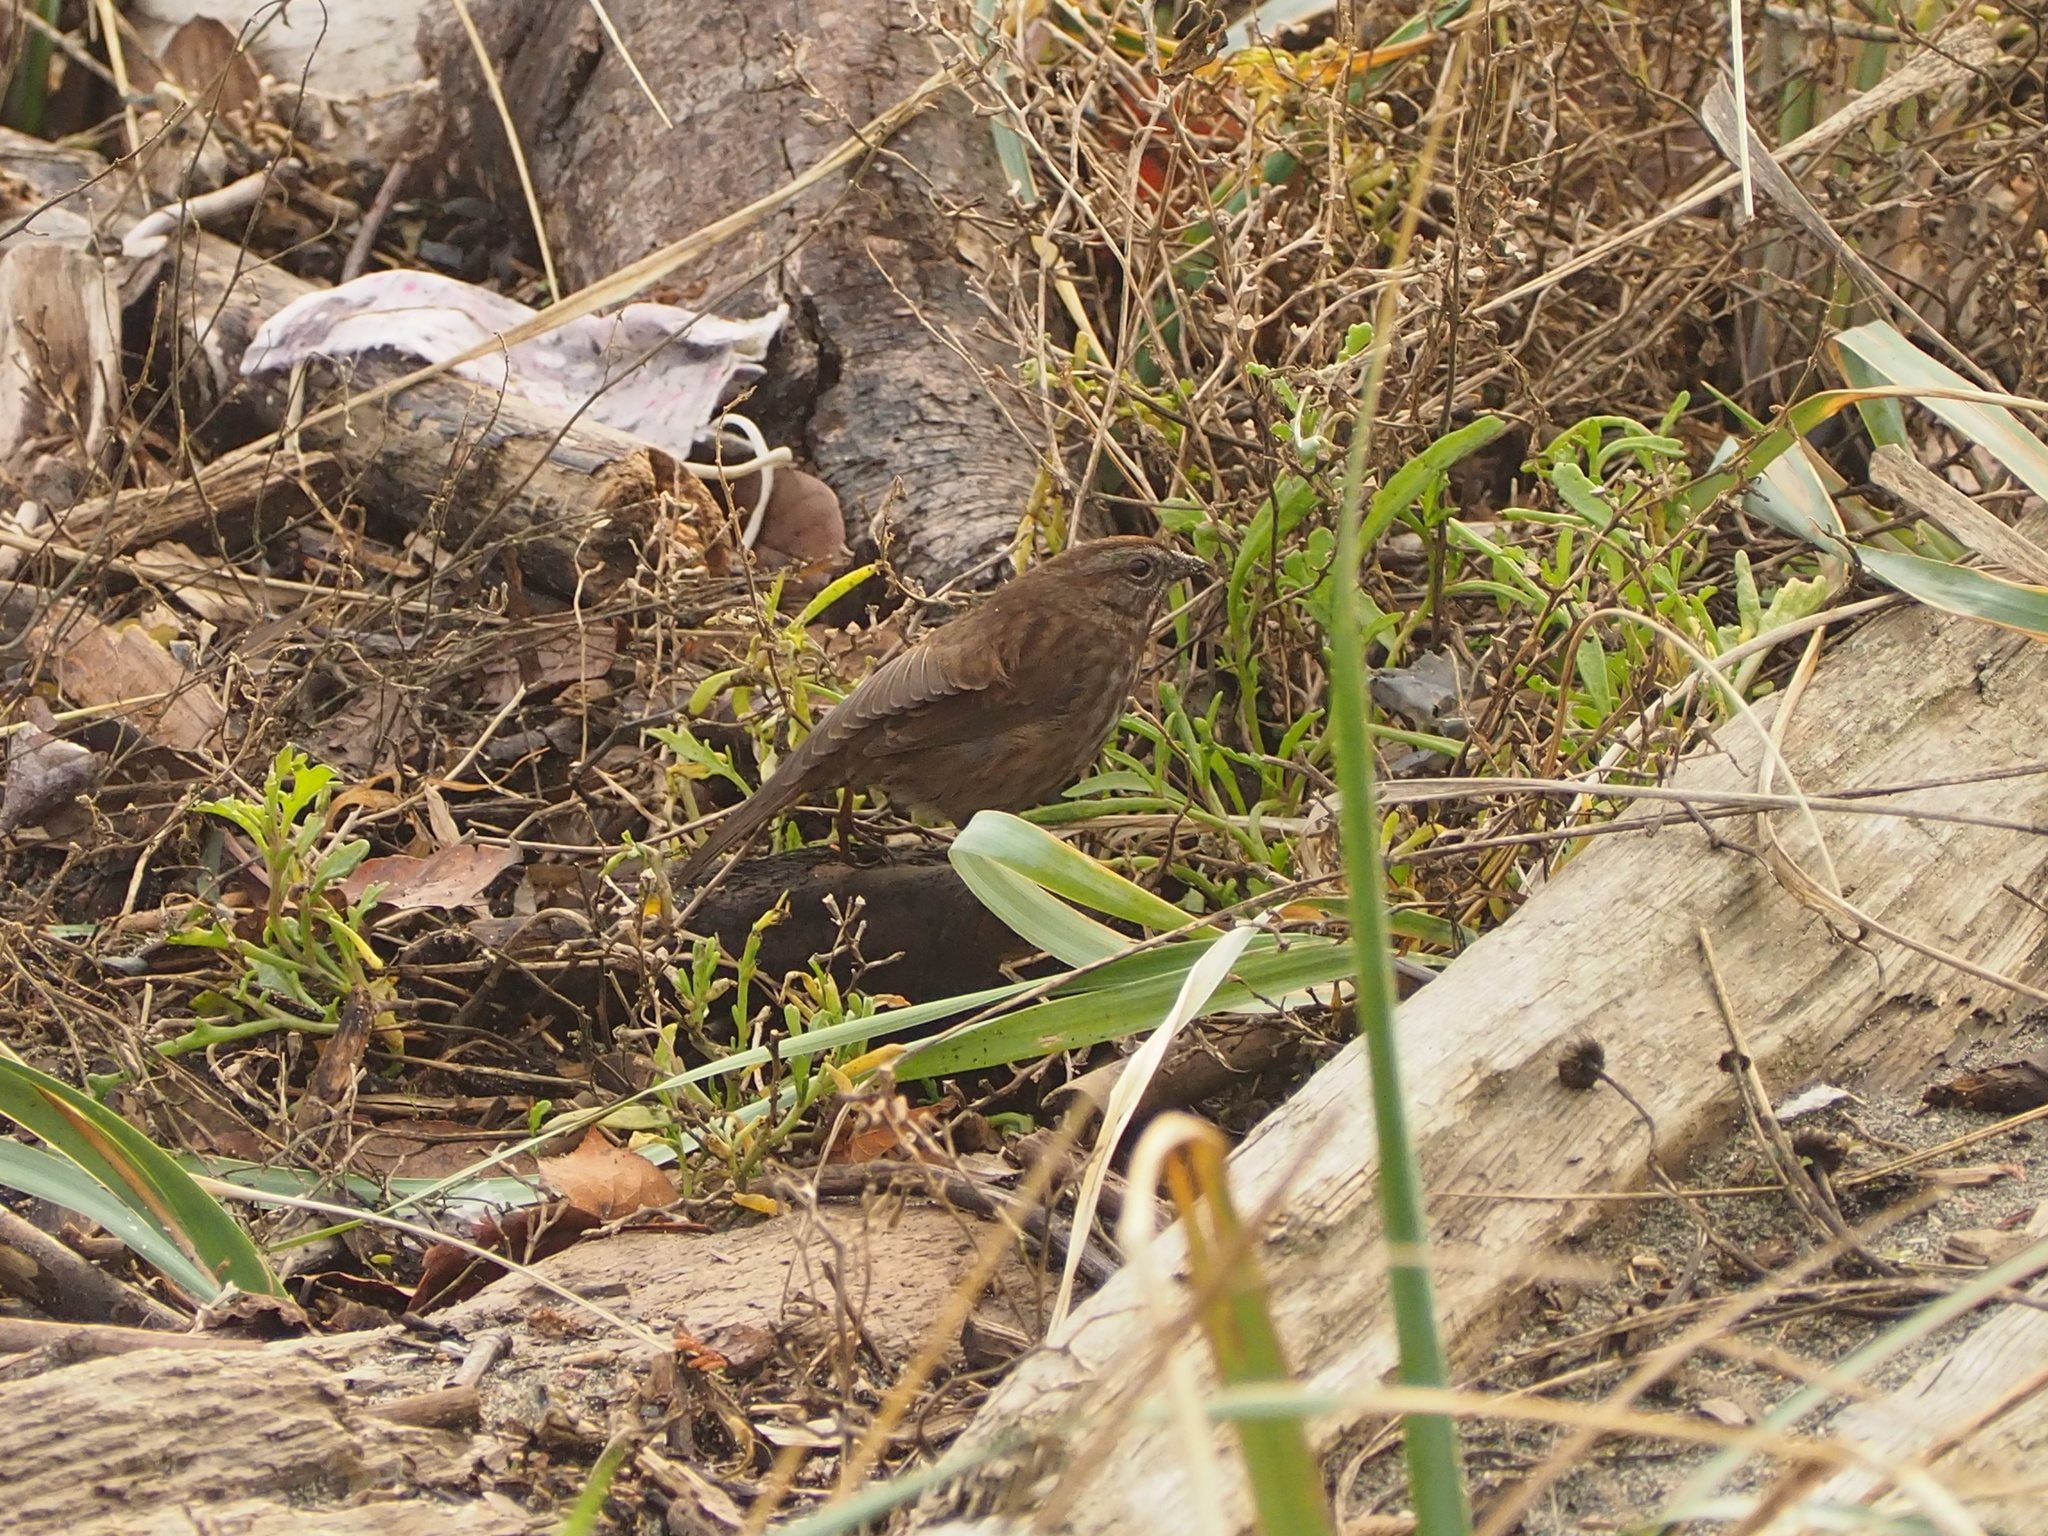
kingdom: Animalia
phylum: Chordata
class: Aves
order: Passeriformes
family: Passerellidae
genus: Melospiza
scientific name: Melospiza melodia
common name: Song sparrow
